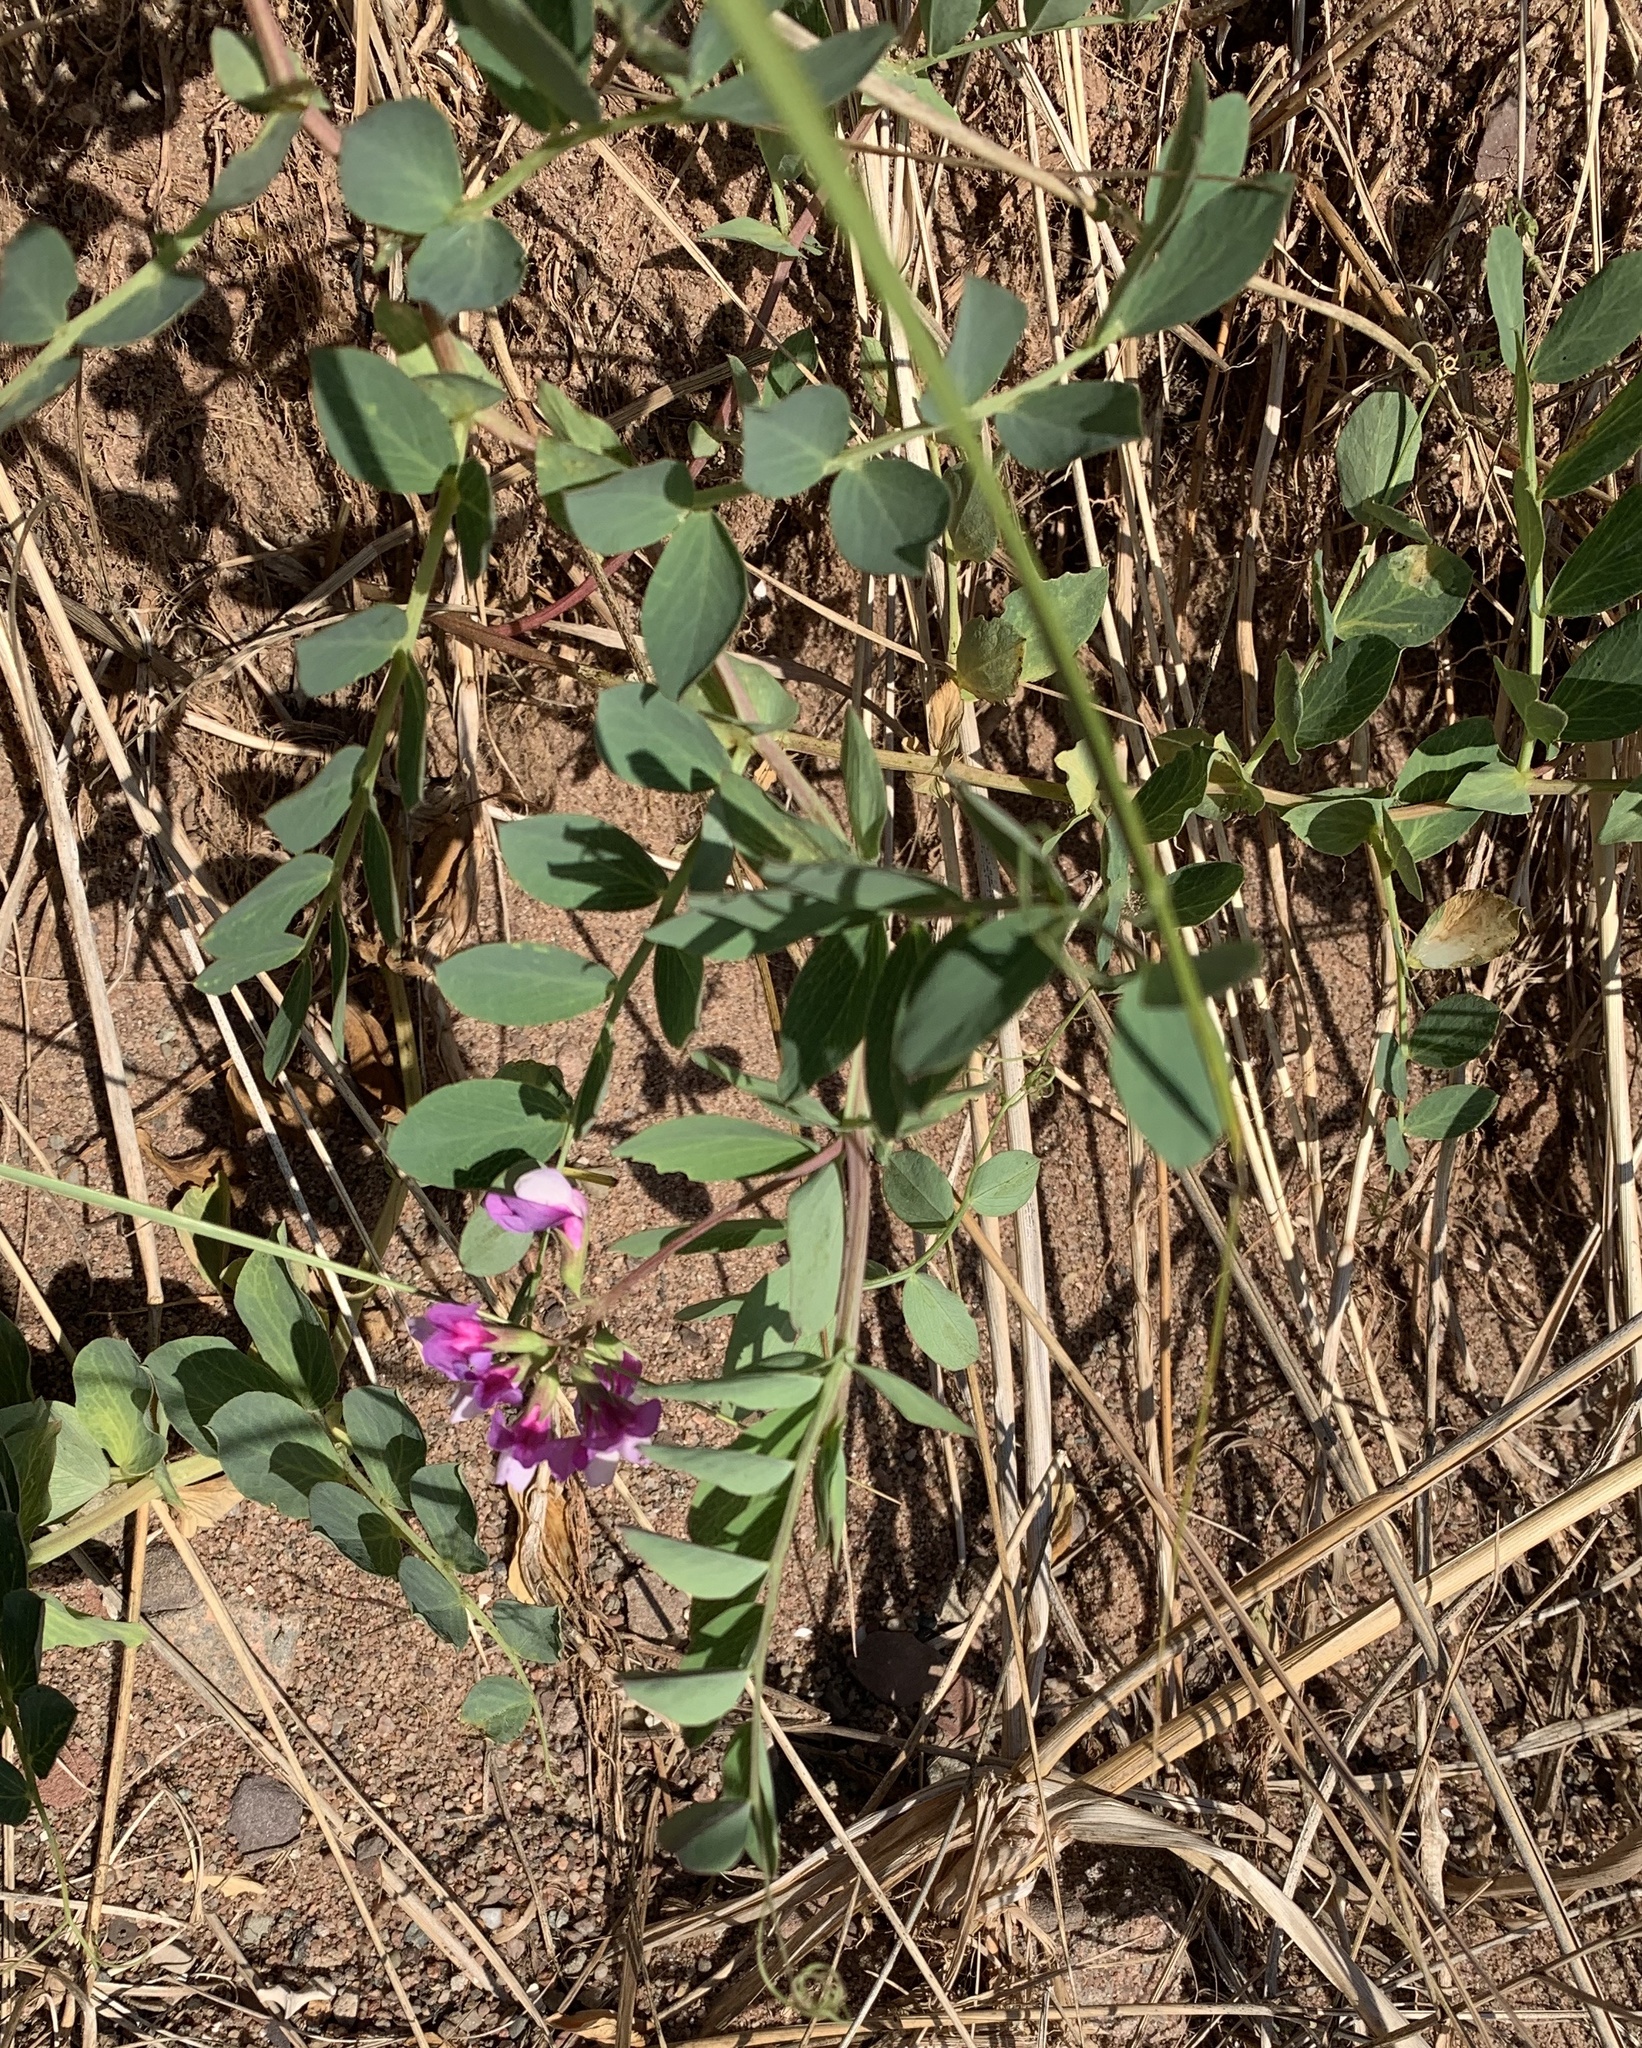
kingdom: Plantae
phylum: Tracheophyta
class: Magnoliopsida
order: Fabales
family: Fabaceae
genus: Lathyrus
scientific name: Lathyrus japonicus
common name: Sea pea
